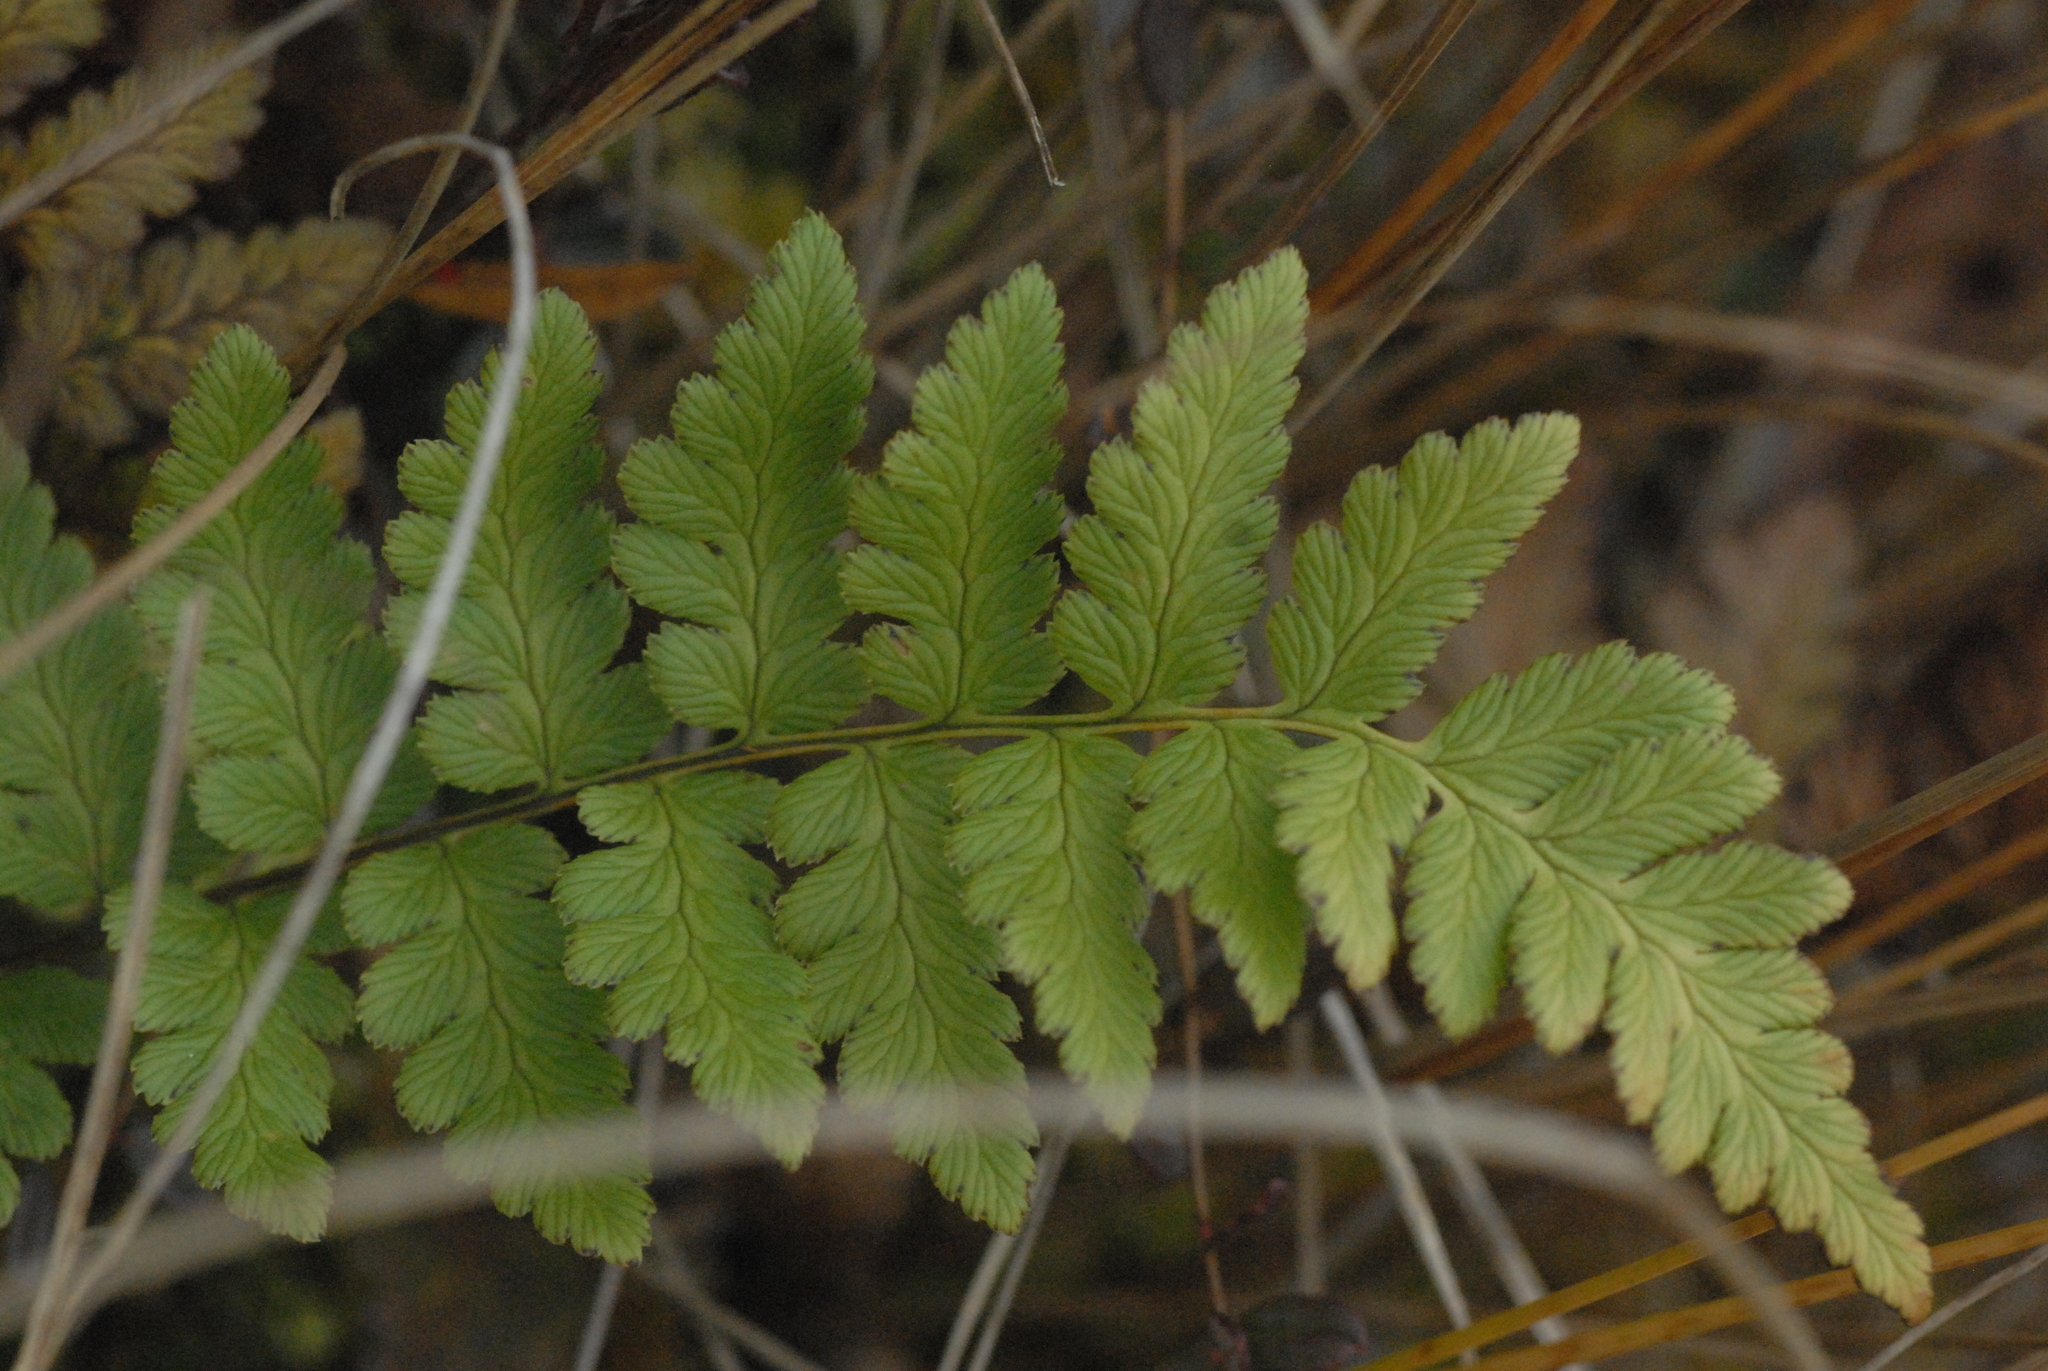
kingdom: Plantae
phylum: Tracheophyta
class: Polypodiopsida
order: Polypodiales
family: Dryopteridaceae
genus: Dryopteris
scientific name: Dryopteris cristata
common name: Crested wood fern
